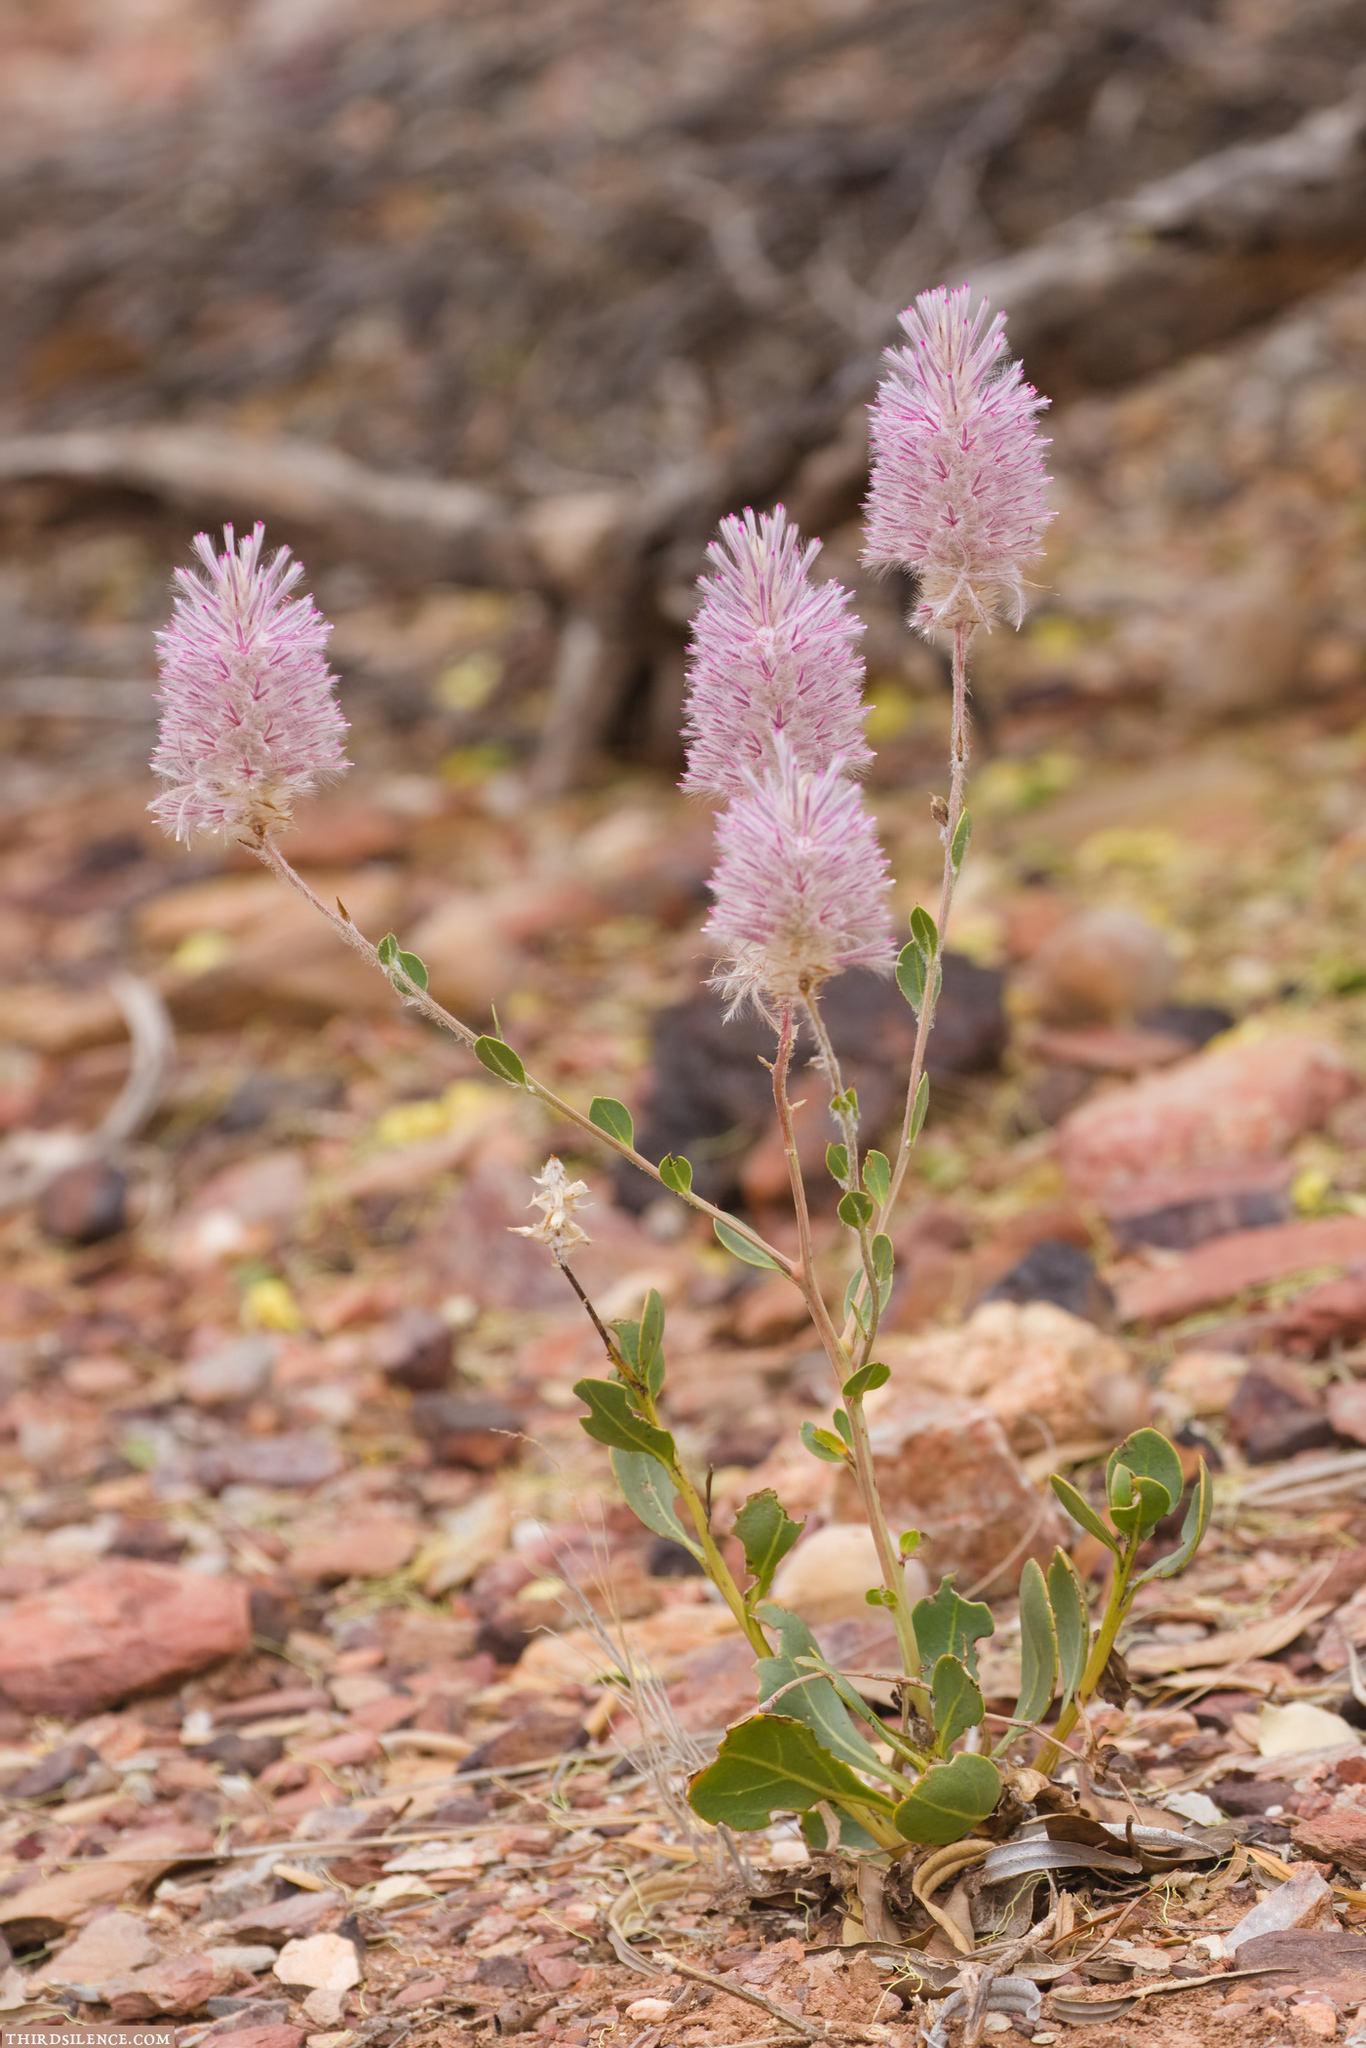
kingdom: Plantae
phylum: Tracheophyta
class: Magnoliopsida
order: Caryophyllales
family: Amaranthaceae
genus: Ptilotus
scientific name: Ptilotus exaltatus
